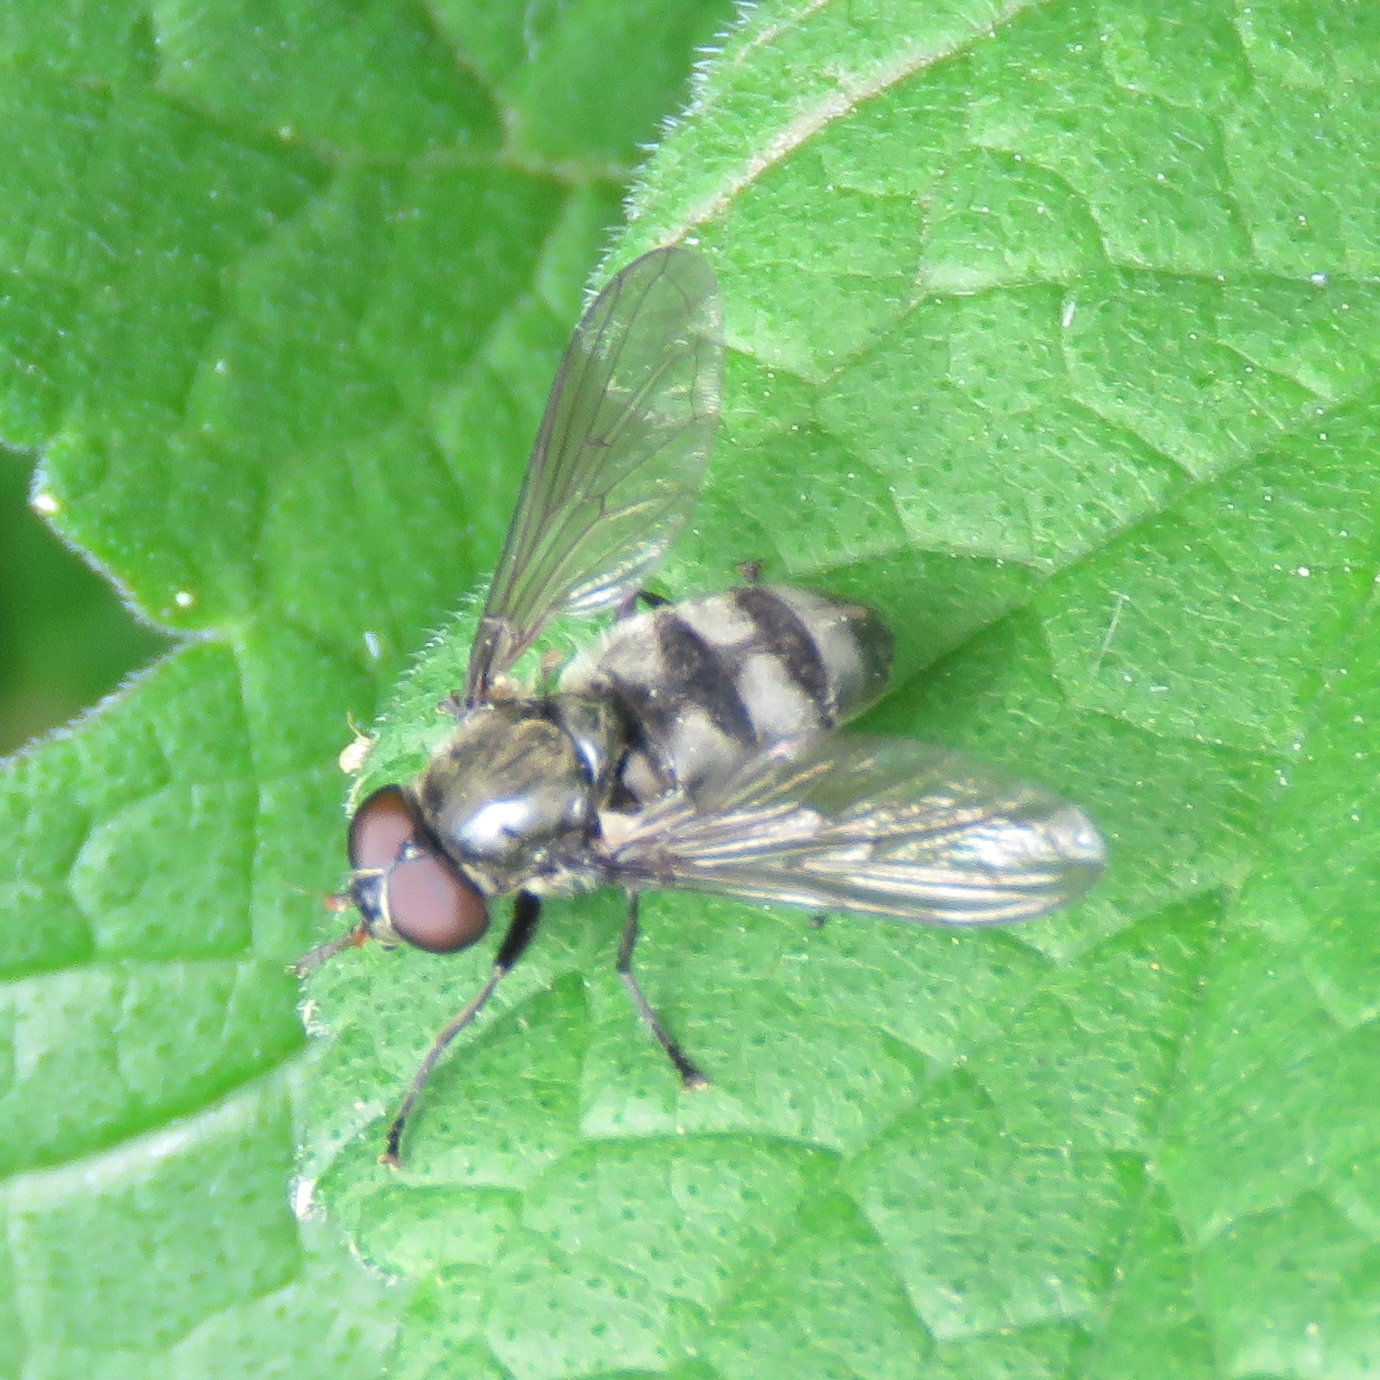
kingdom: Animalia
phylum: Arthropoda
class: Insecta
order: Diptera
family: Syrphidae
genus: Portevinia
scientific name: Portevinia maculata
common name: Ramson's hoverfly
